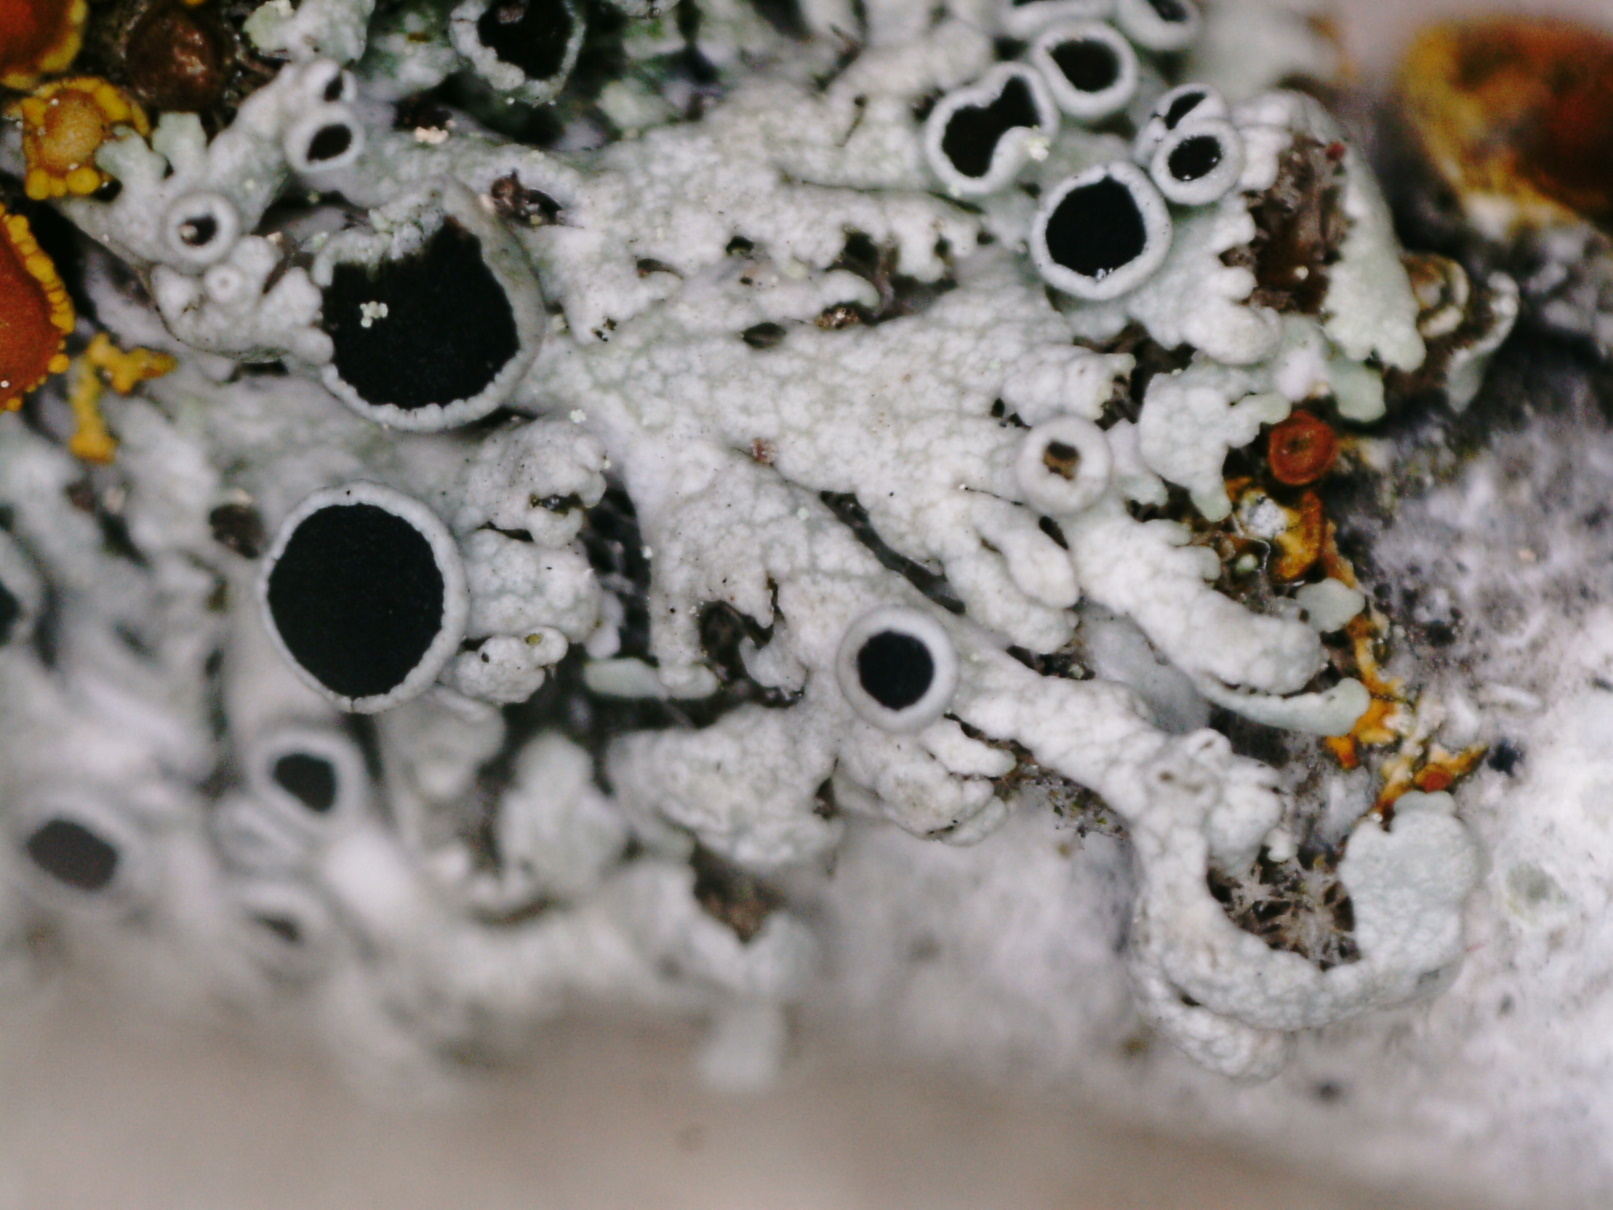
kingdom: Fungi
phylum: Ascomycota
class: Lecanoromycetes
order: Caliciales
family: Physciaceae
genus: Physcia
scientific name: Physcia stellaris
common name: Star rosette lichen
